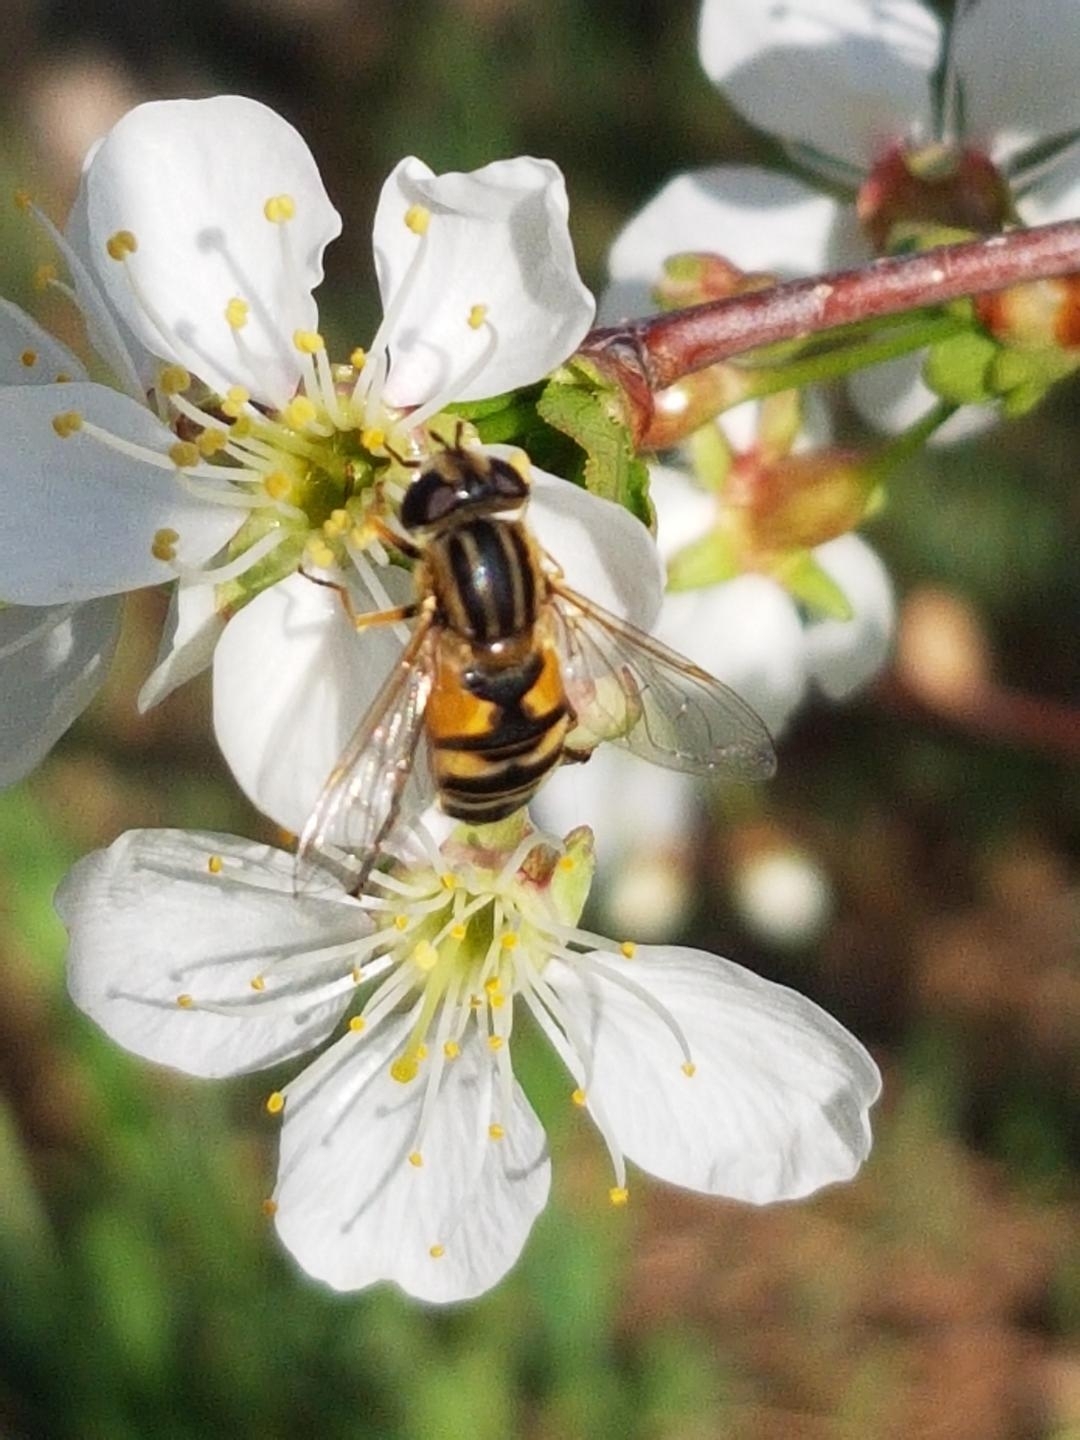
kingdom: Animalia
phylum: Arthropoda
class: Insecta
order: Diptera
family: Syrphidae
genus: Helophilus
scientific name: Helophilus latifrons
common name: Broad-headed marsh fly
